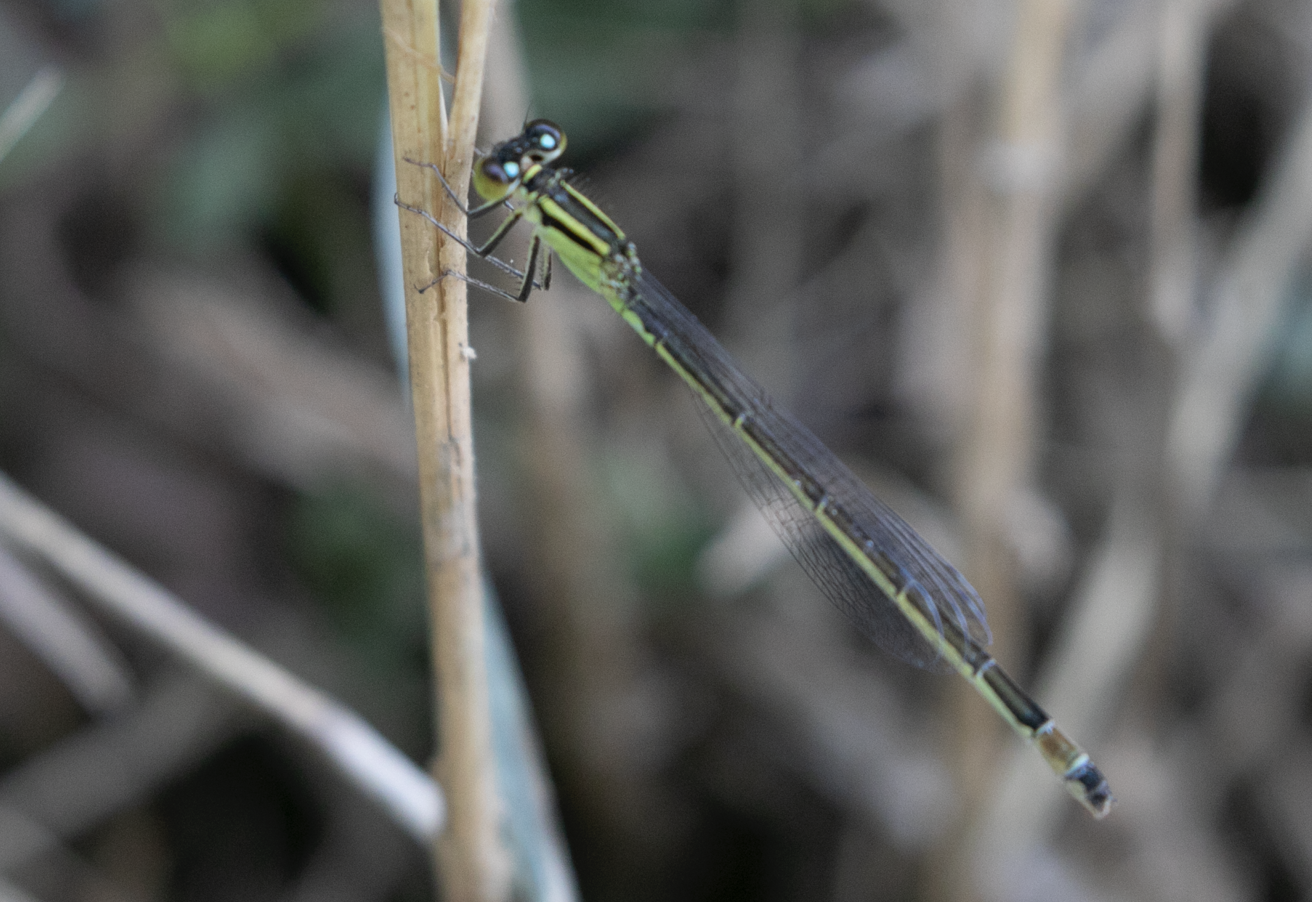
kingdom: Animalia
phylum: Arthropoda
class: Insecta
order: Odonata
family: Coenagrionidae
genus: Ischnura
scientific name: Ischnura elegans
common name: Blue-tailed damselfly
